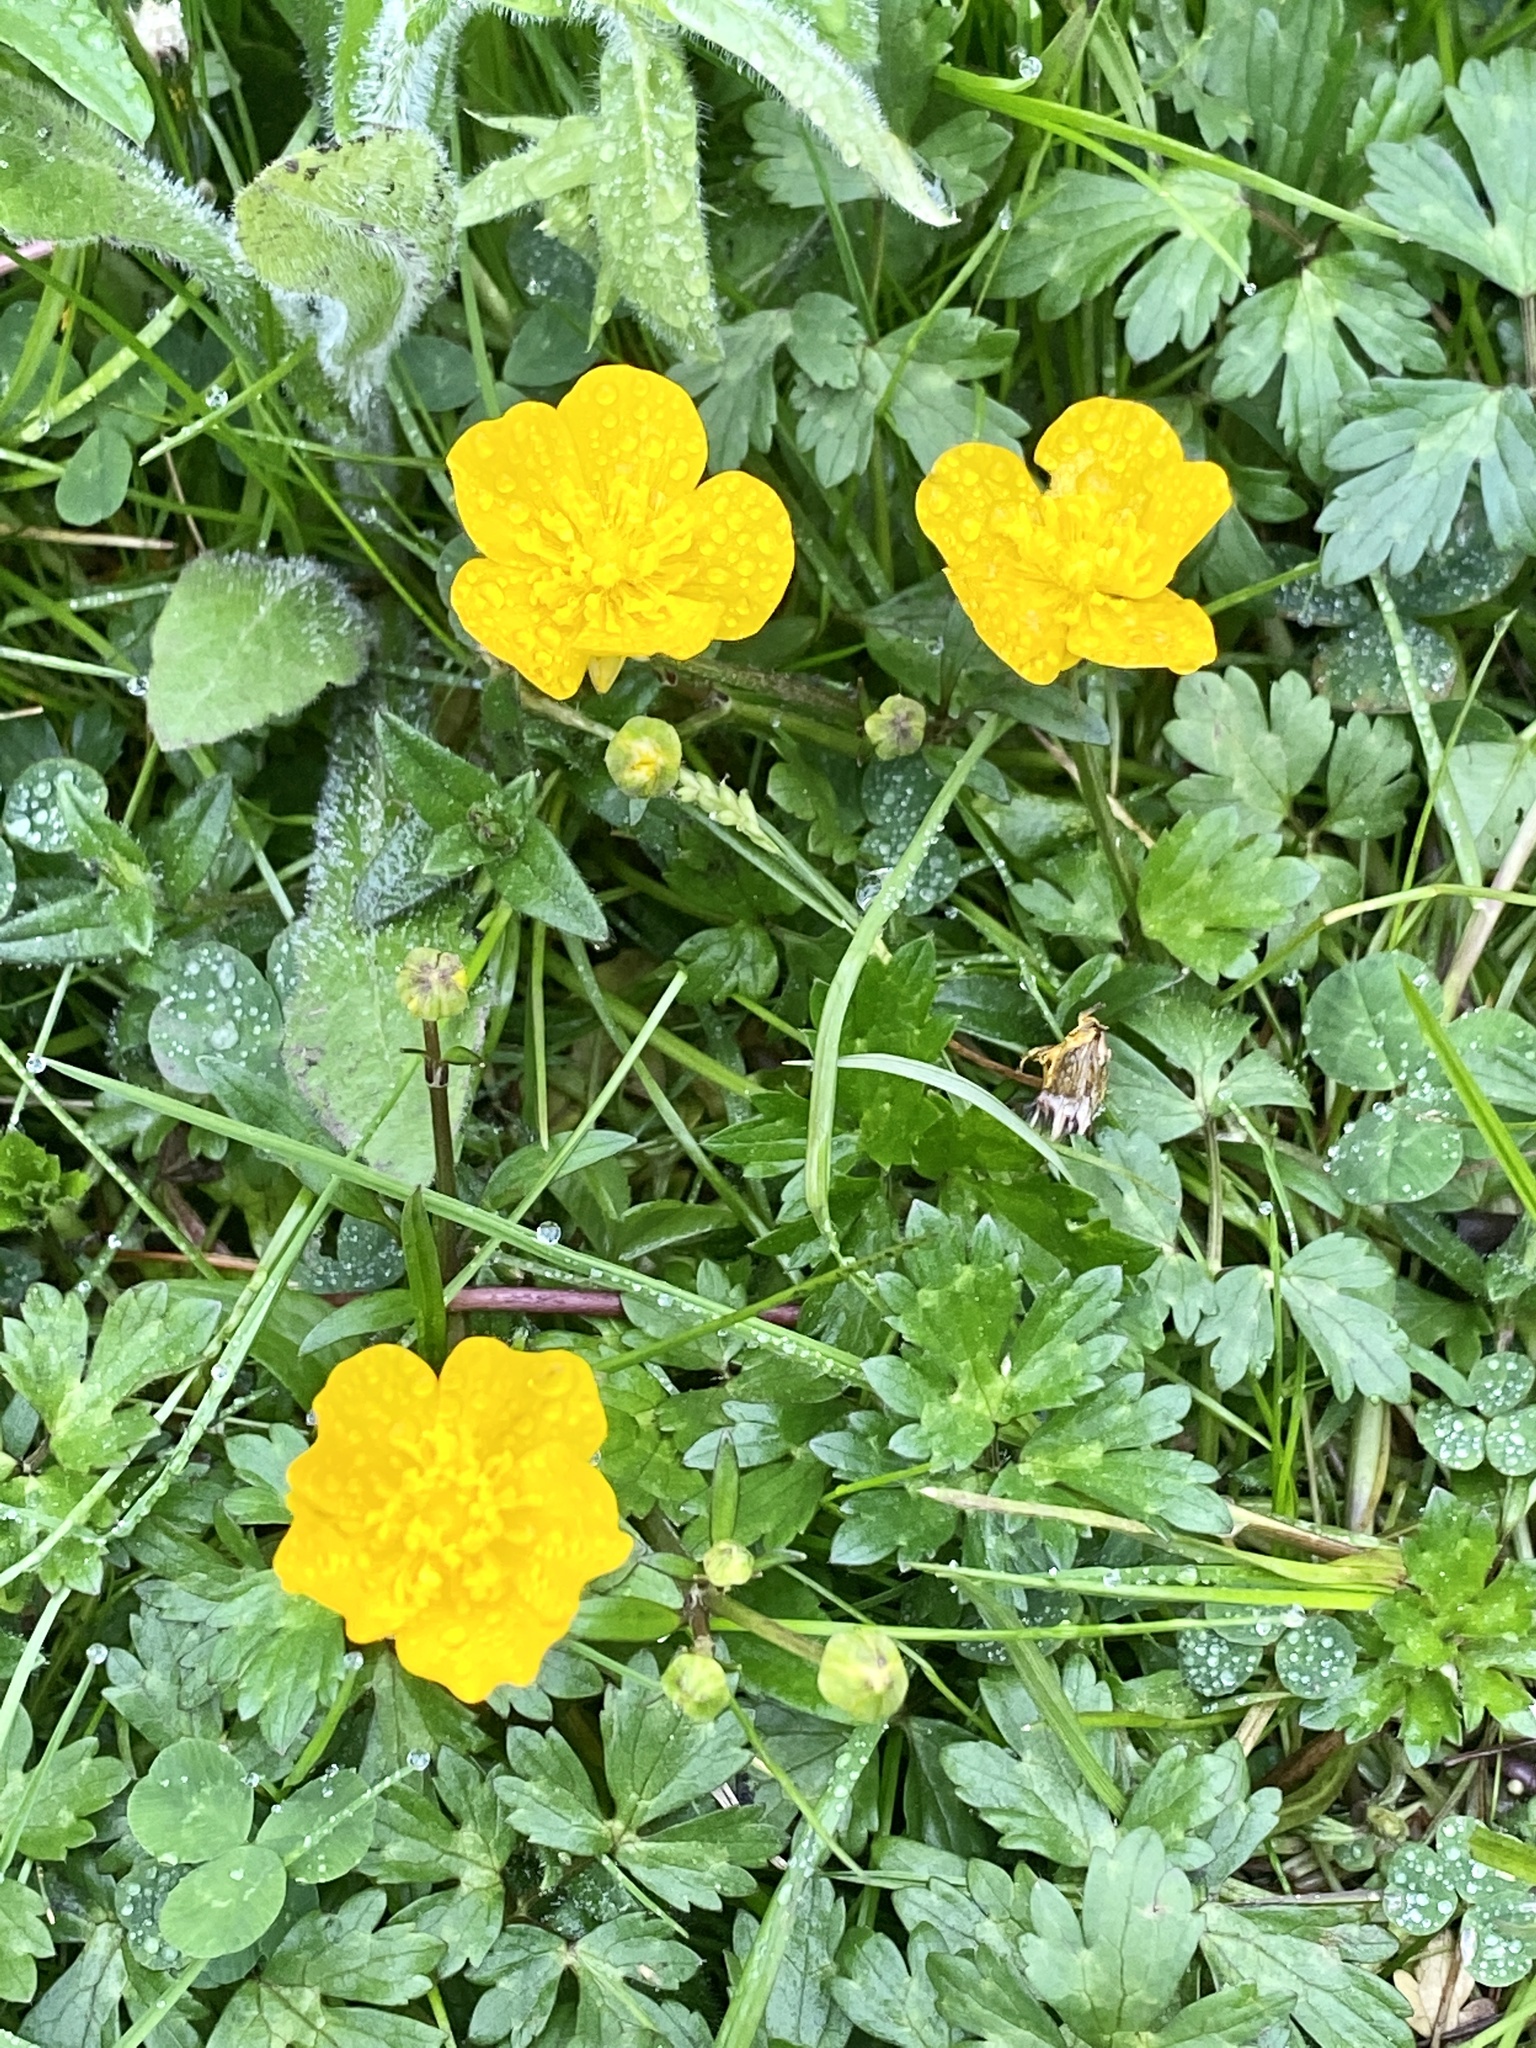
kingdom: Plantae
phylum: Tracheophyta
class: Magnoliopsida
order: Ranunculales
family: Ranunculaceae
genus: Ranunculus
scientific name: Ranunculus repens
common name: Creeping buttercup
